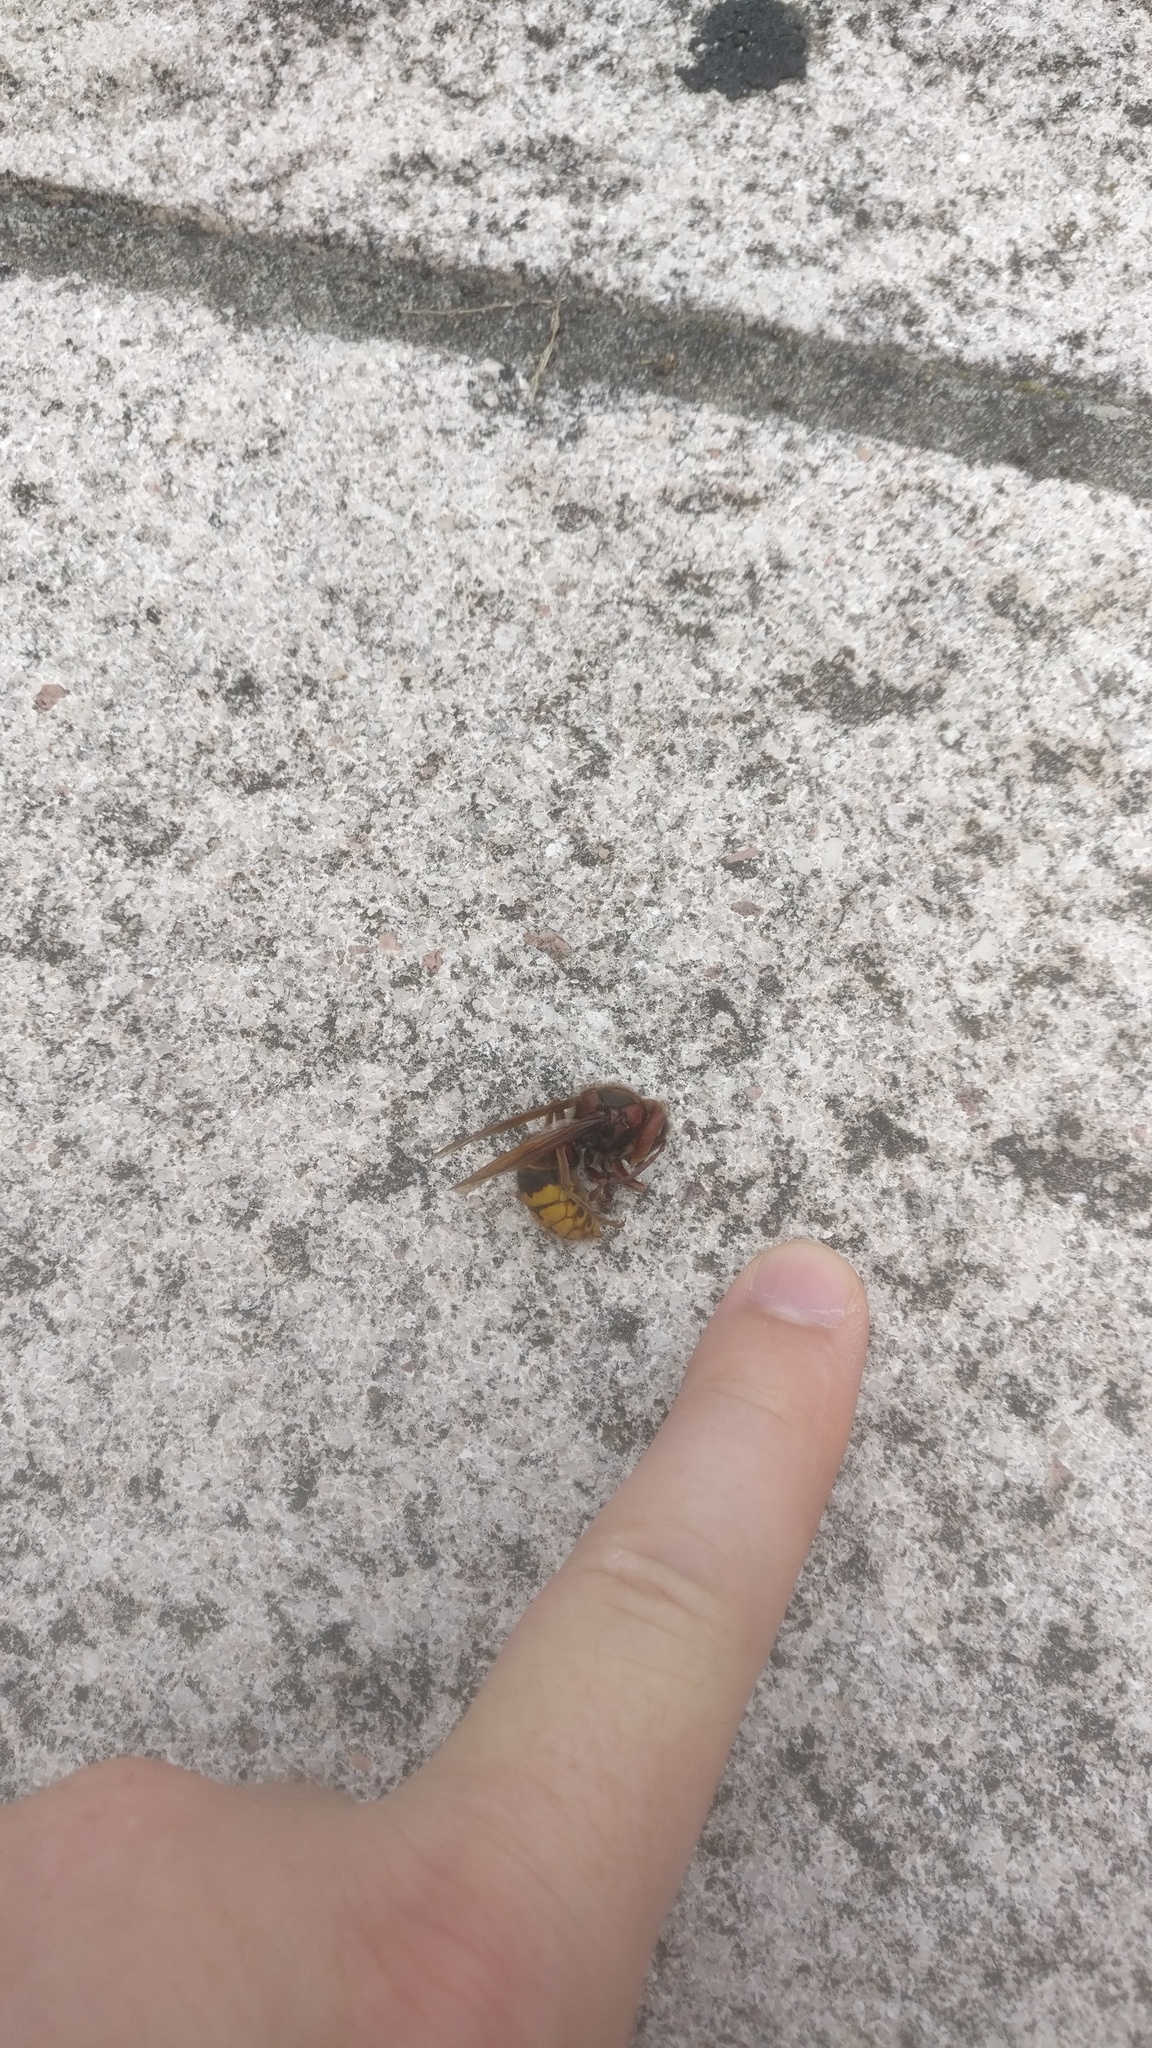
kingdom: Animalia
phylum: Arthropoda
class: Insecta
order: Hymenoptera
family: Vespidae
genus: Vespa
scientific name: Vespa crabro
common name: Hornet
